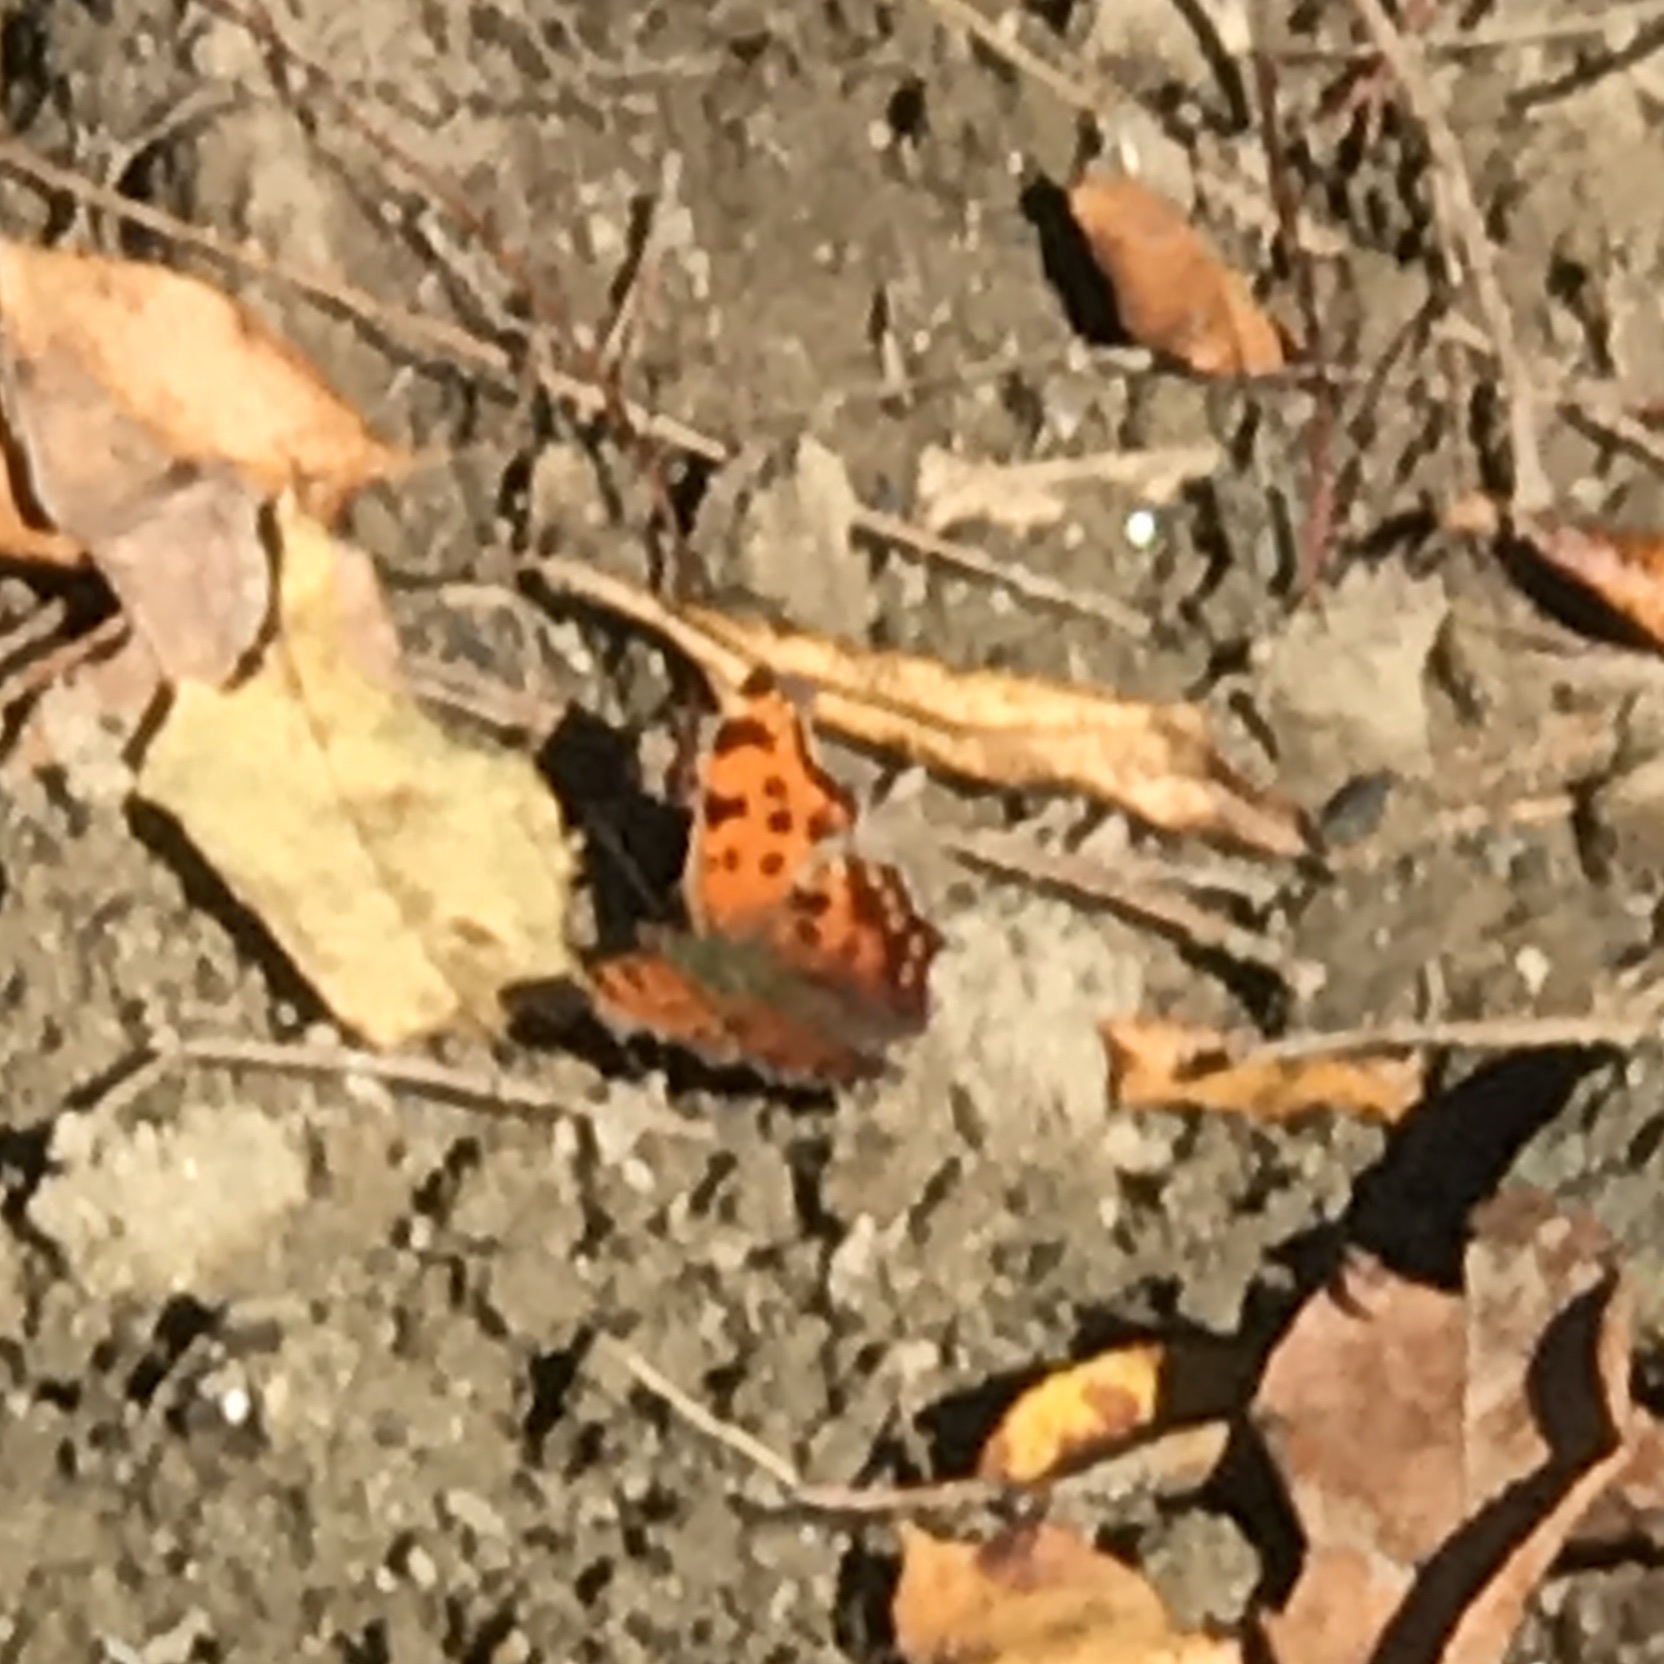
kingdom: Animalia
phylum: Arthropoda
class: Insecta
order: Lepidoptera
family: Nymphalidae
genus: Polygonia
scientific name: Polygonia comma
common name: Eastern comma
